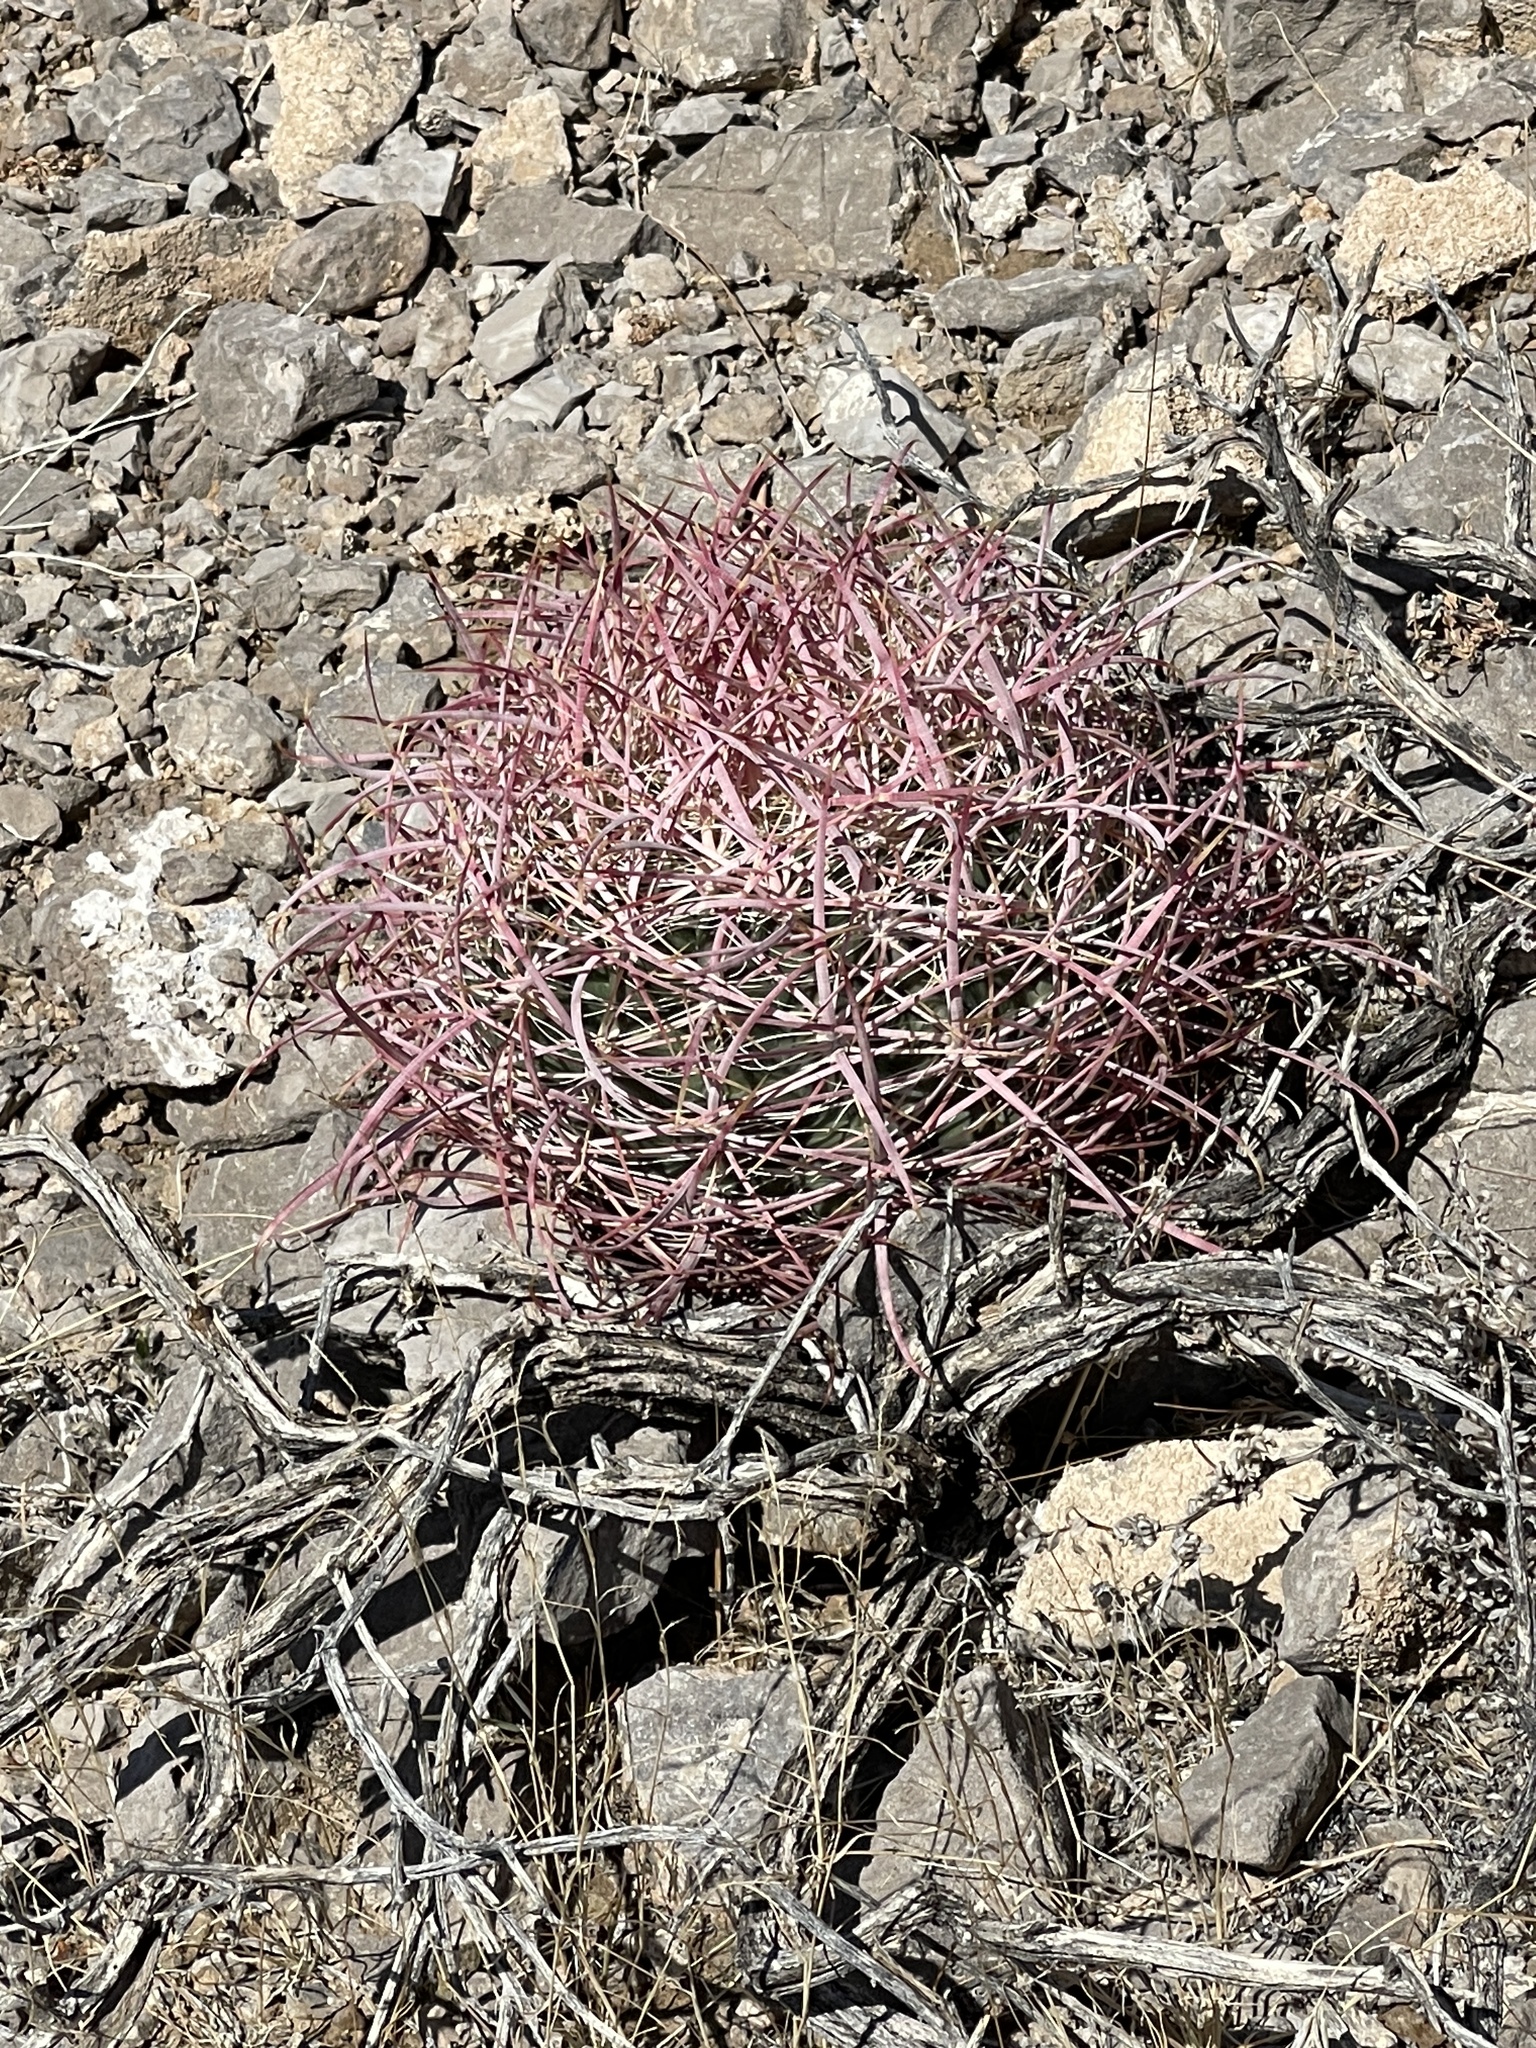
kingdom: Plantae
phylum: Tracheophyta
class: Magnoliopsida
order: Caryophyllales
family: Cactaceae
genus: Ferocactus
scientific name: Ferocactus cylindraceus
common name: California barrel cactus
